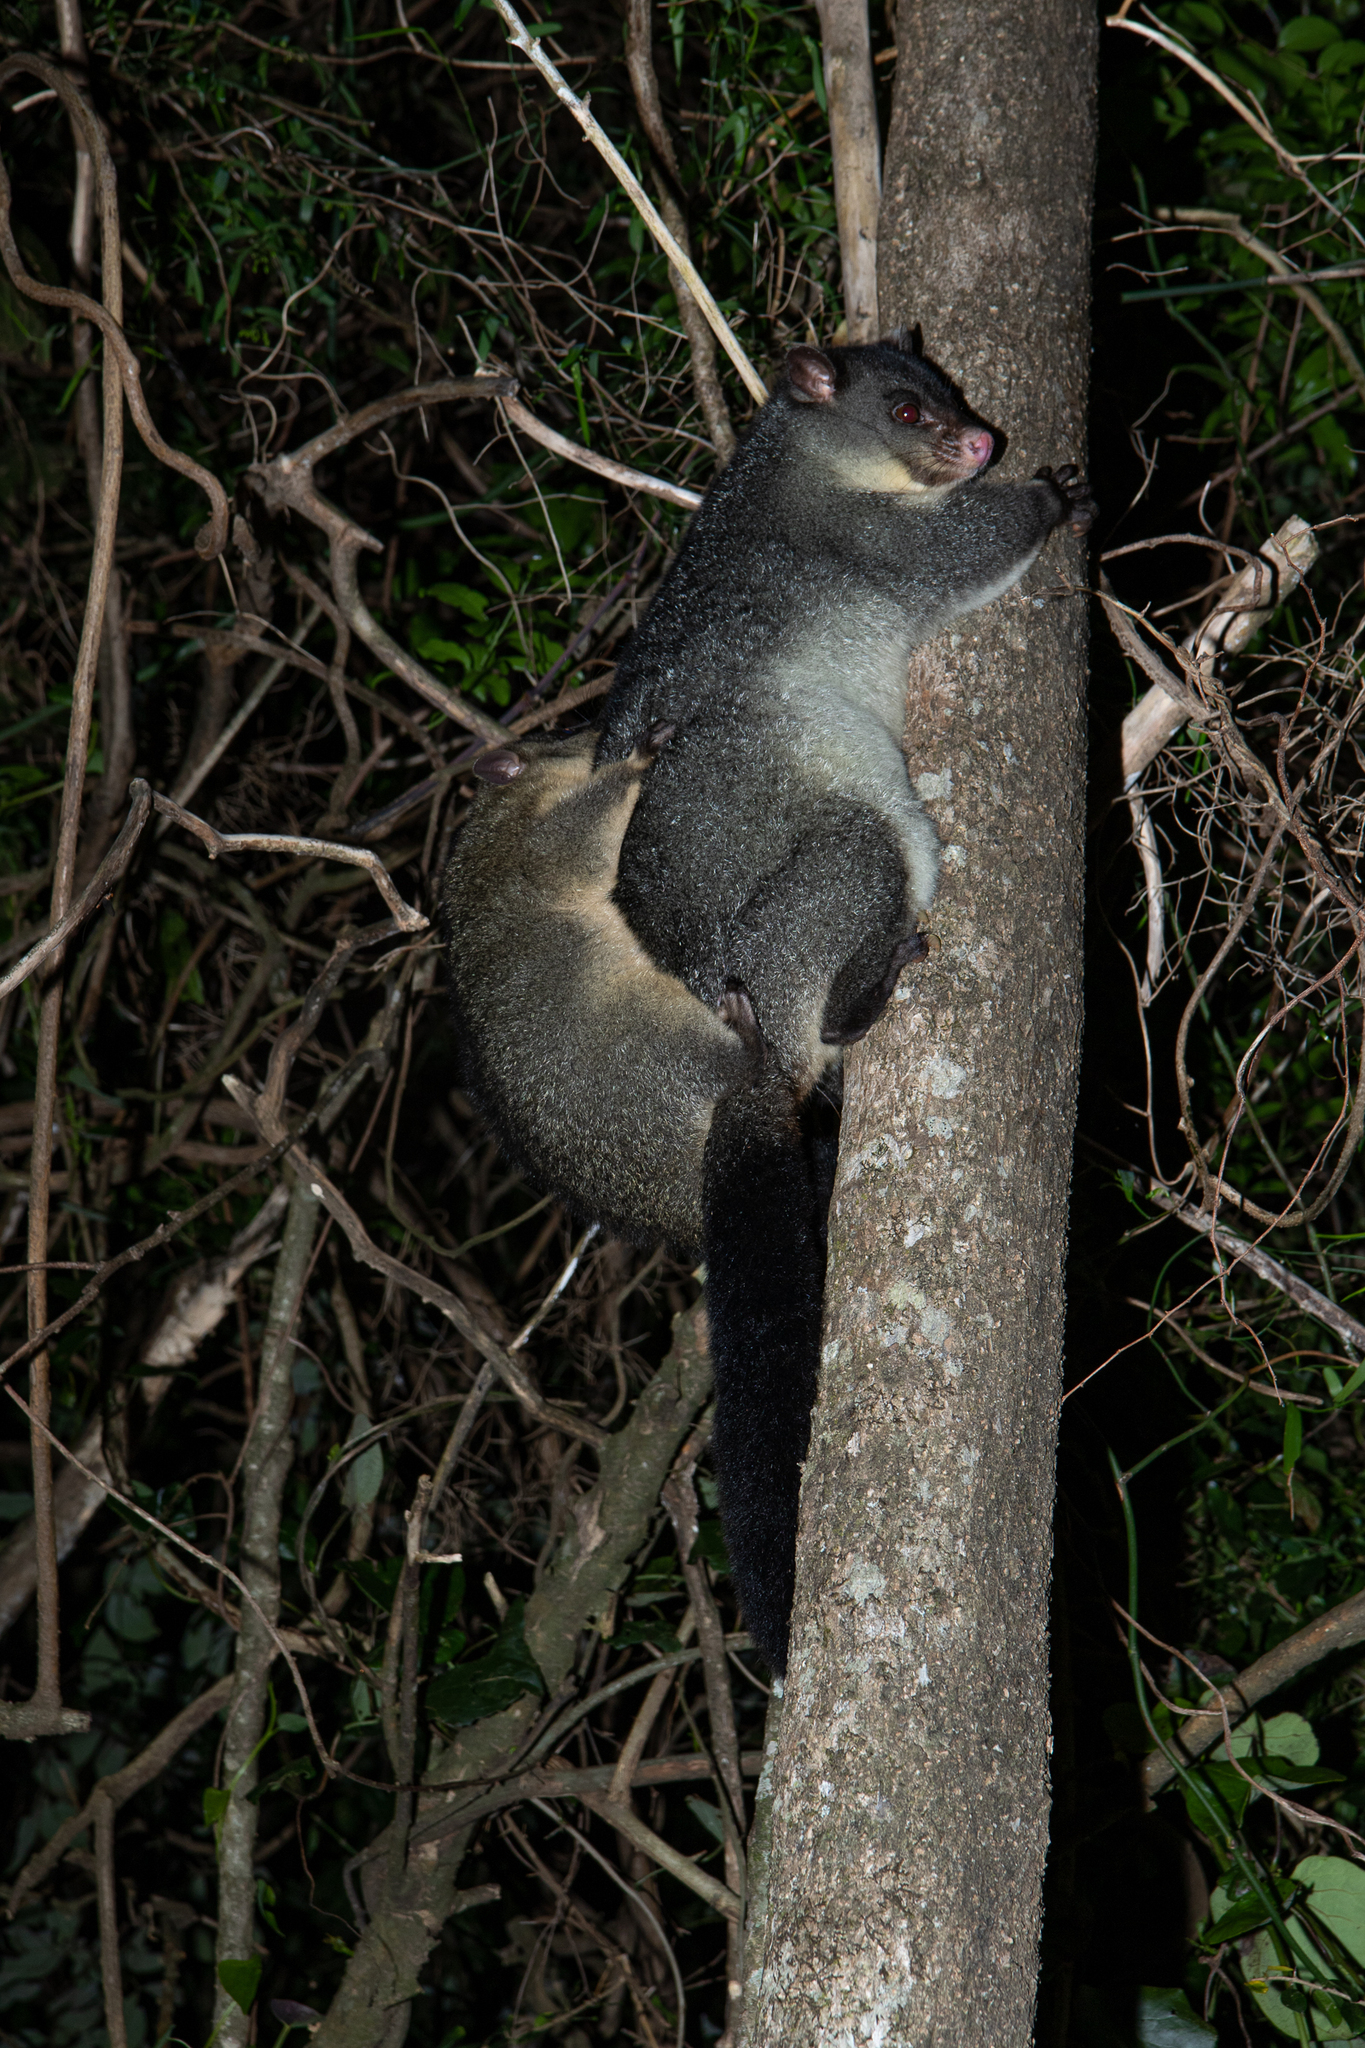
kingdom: Animalia
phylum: Chordata
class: Mammalia
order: Diprotodontia
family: Phalangeridae
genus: Trichosurus
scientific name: Trichosurus caninus
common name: Short-eared possum
